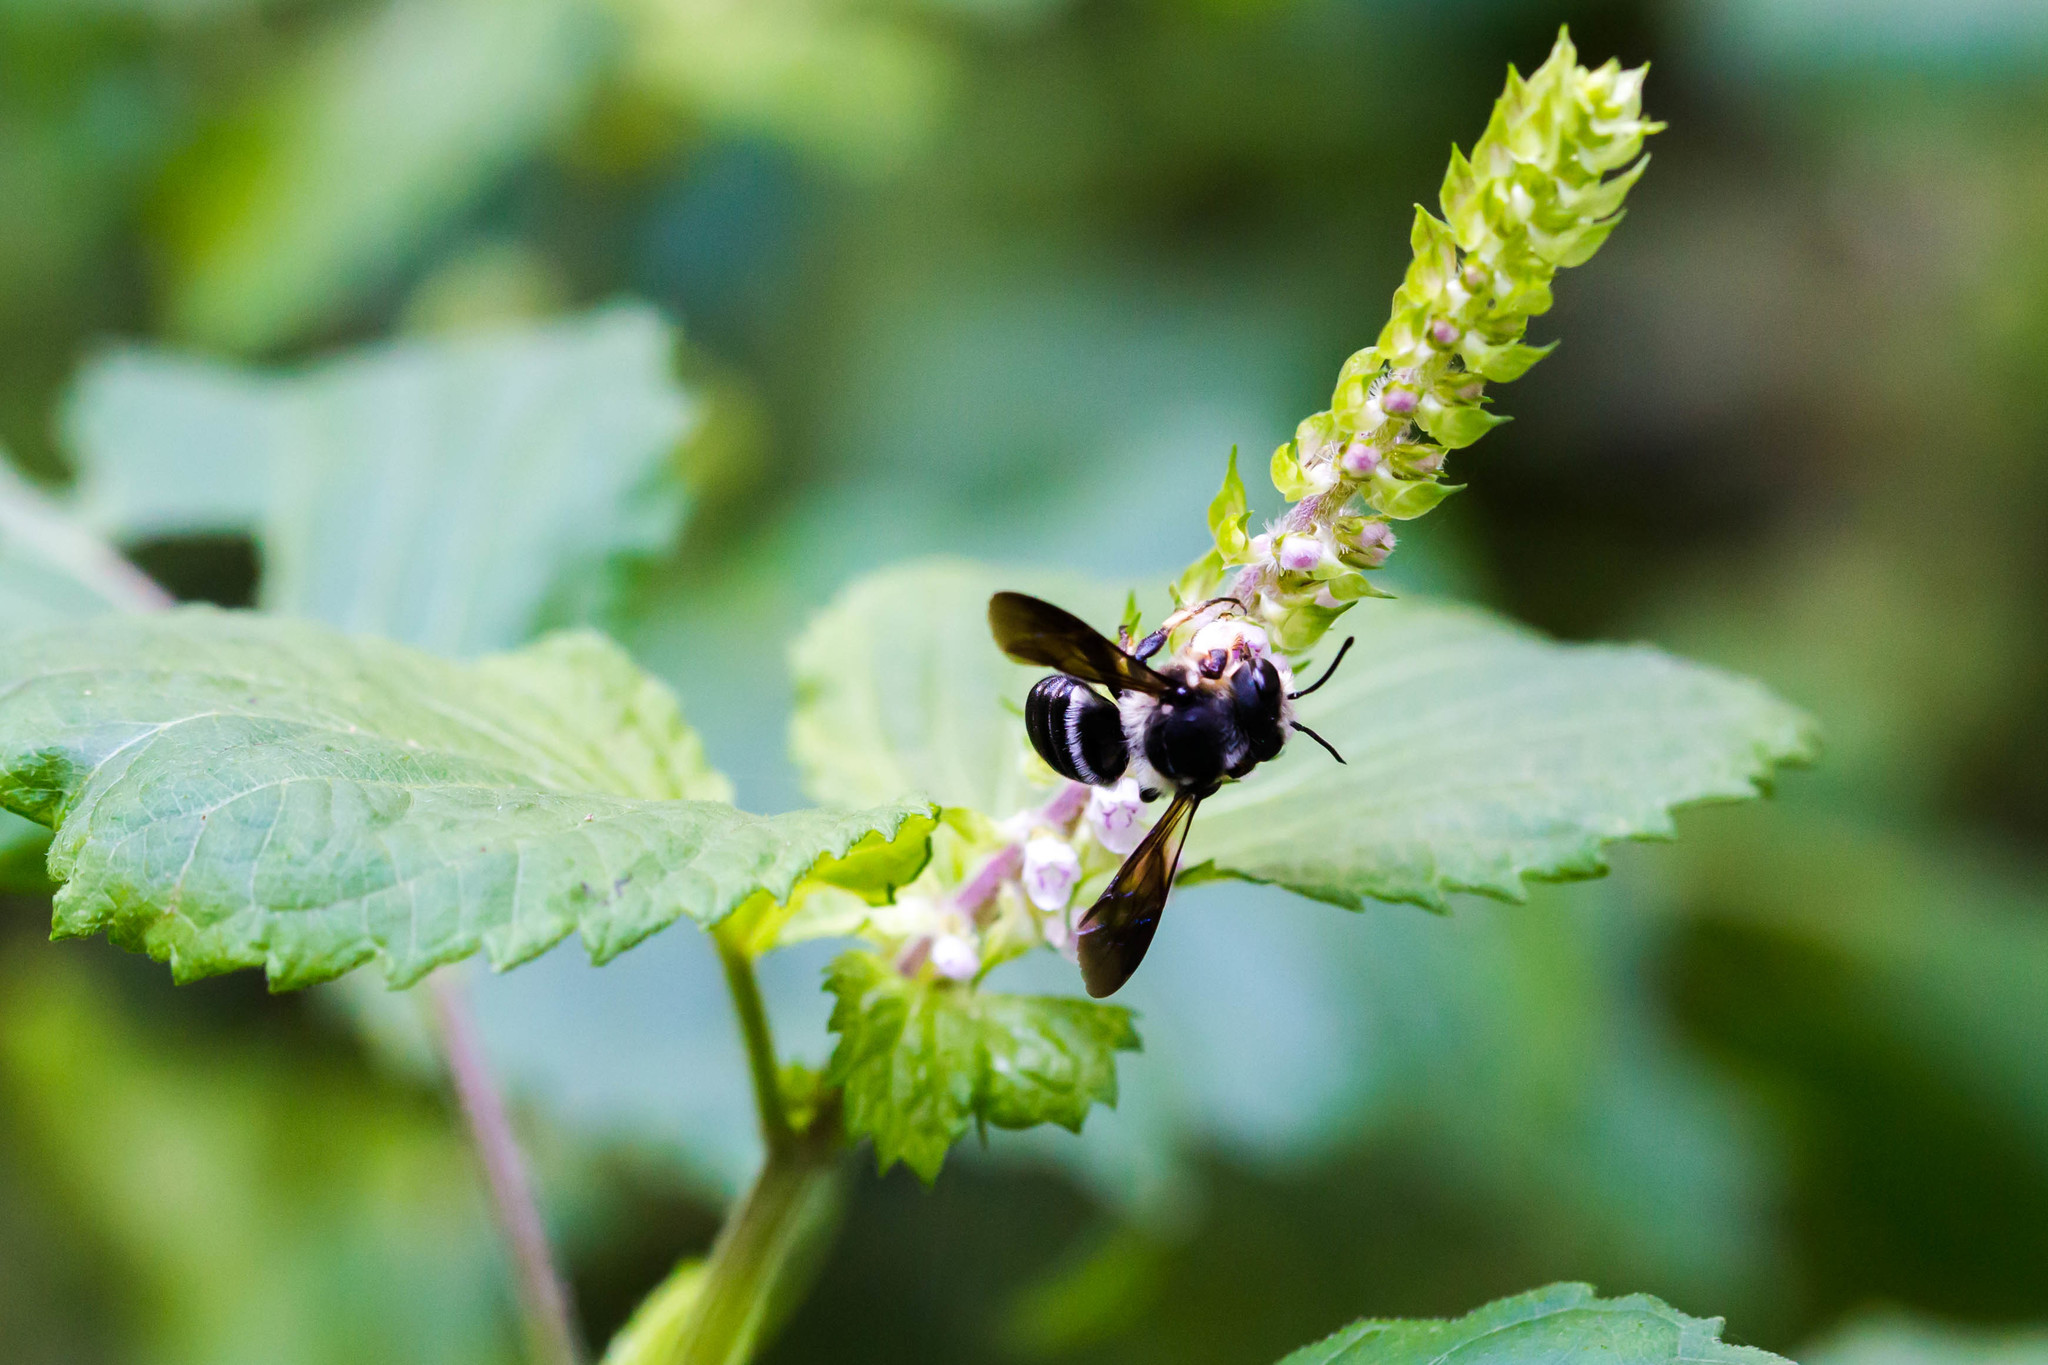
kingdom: Animalia
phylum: Arthropoda
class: Insecta
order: Hymenoptera
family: Megachilidae
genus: Megachile
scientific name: Megachile xylocopoides
